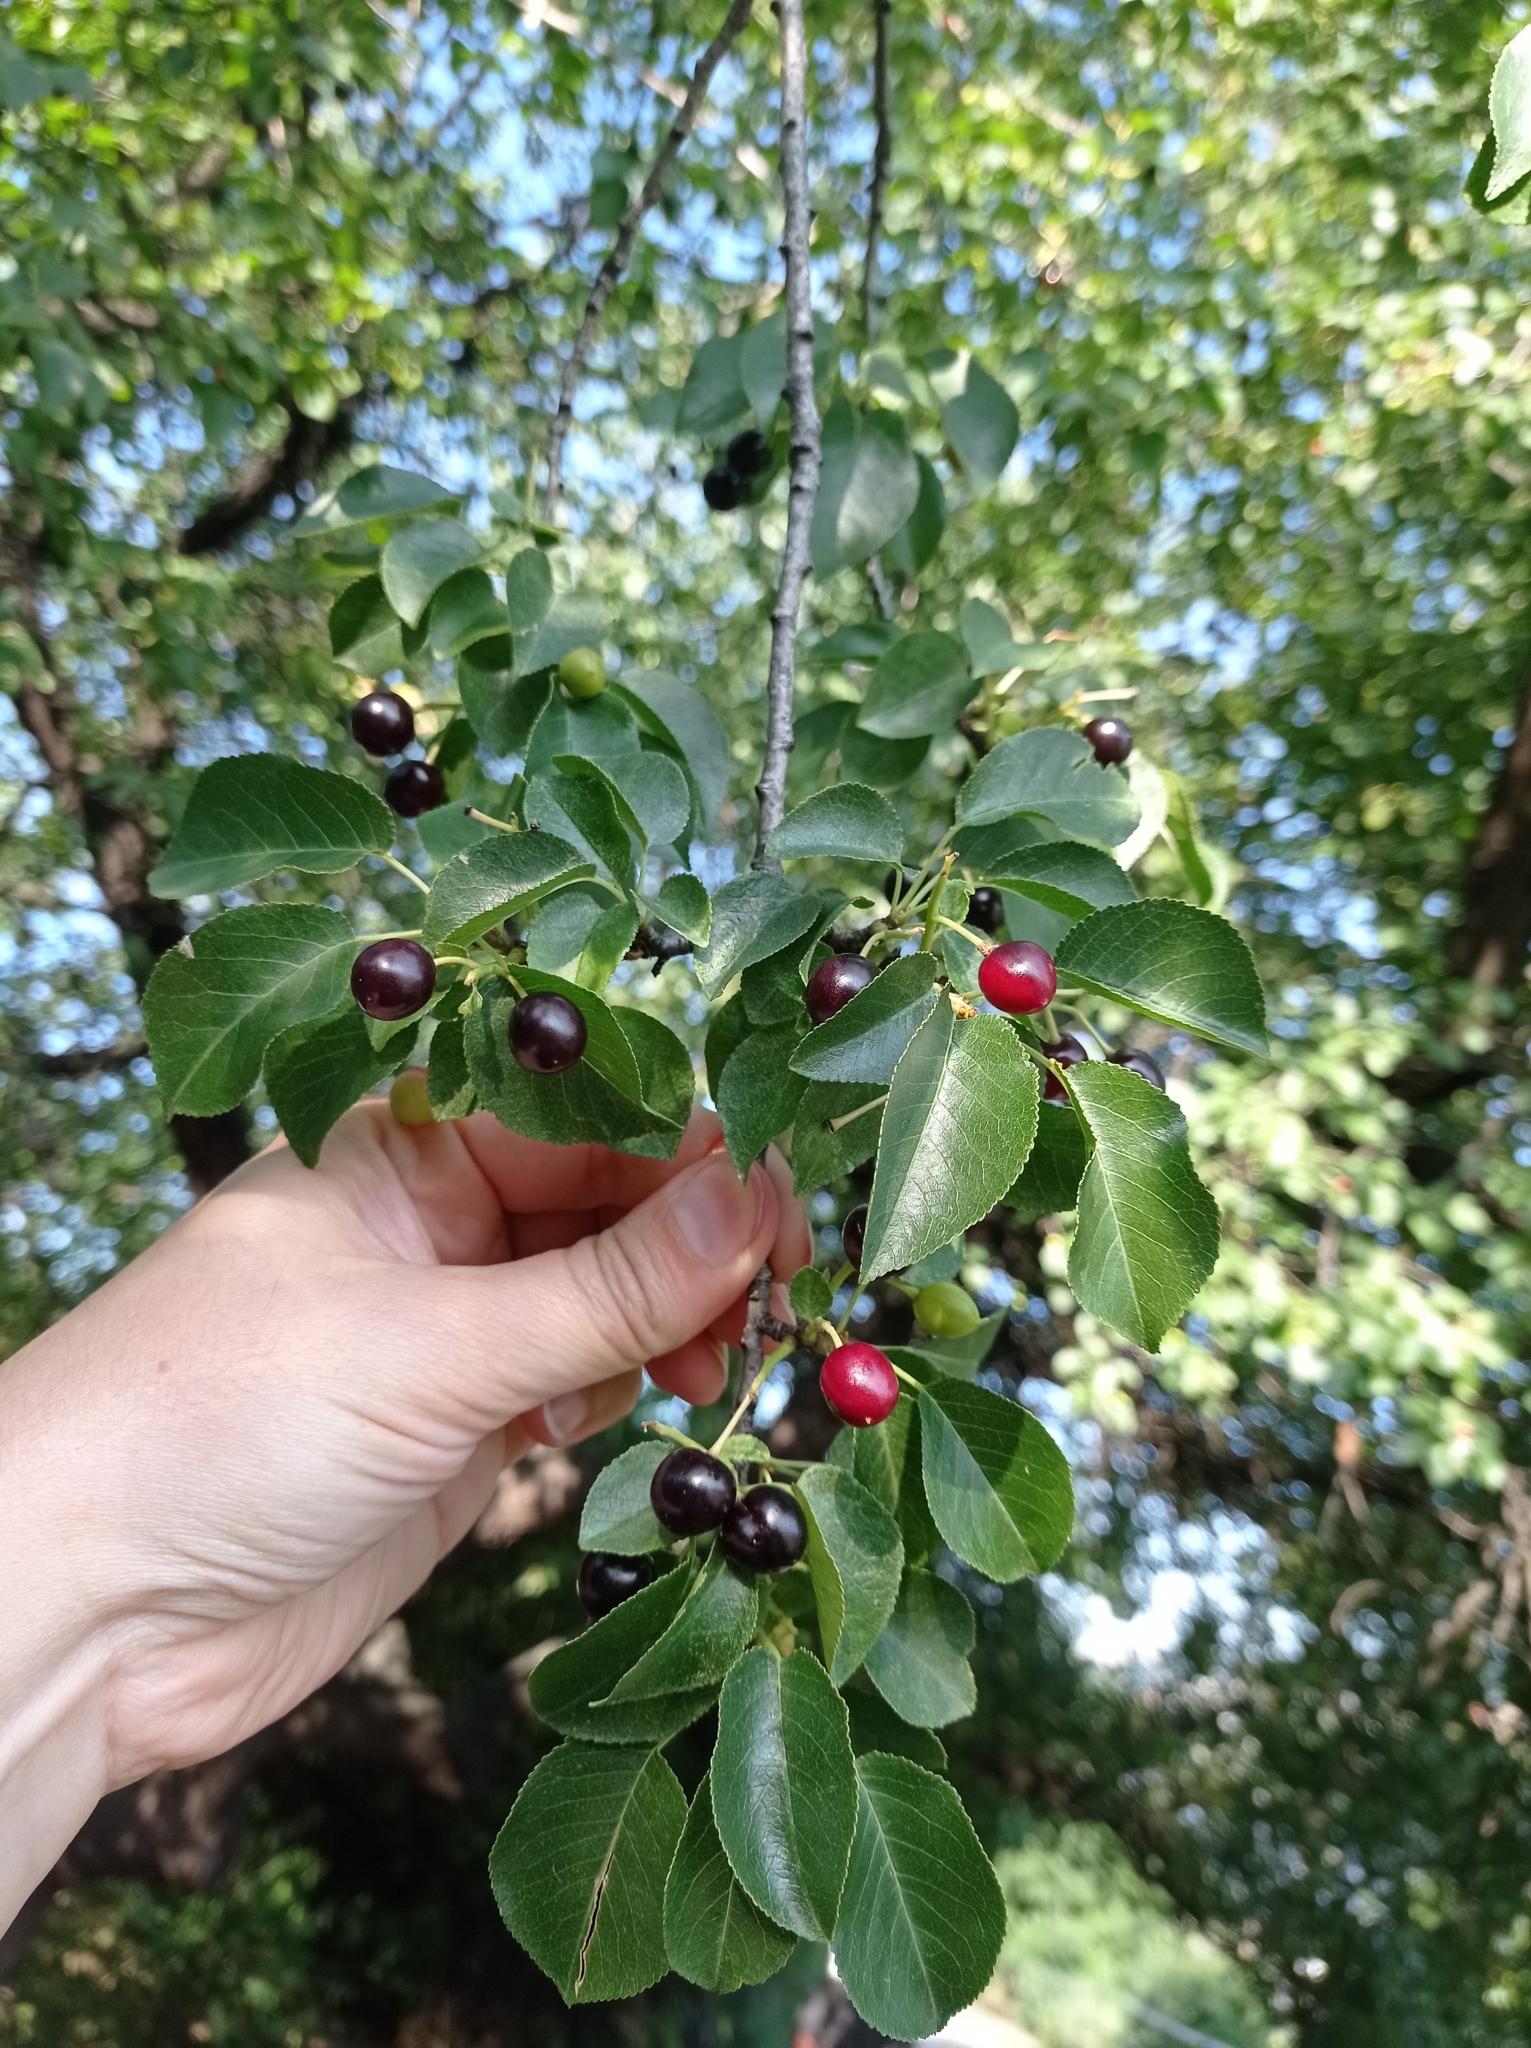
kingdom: Plantae
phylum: Tracheophyta
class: Magnoliopsida
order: Rosales
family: Rosaceae
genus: Prunus
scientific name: Prunus mahaleb
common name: Mahaleb cherry
